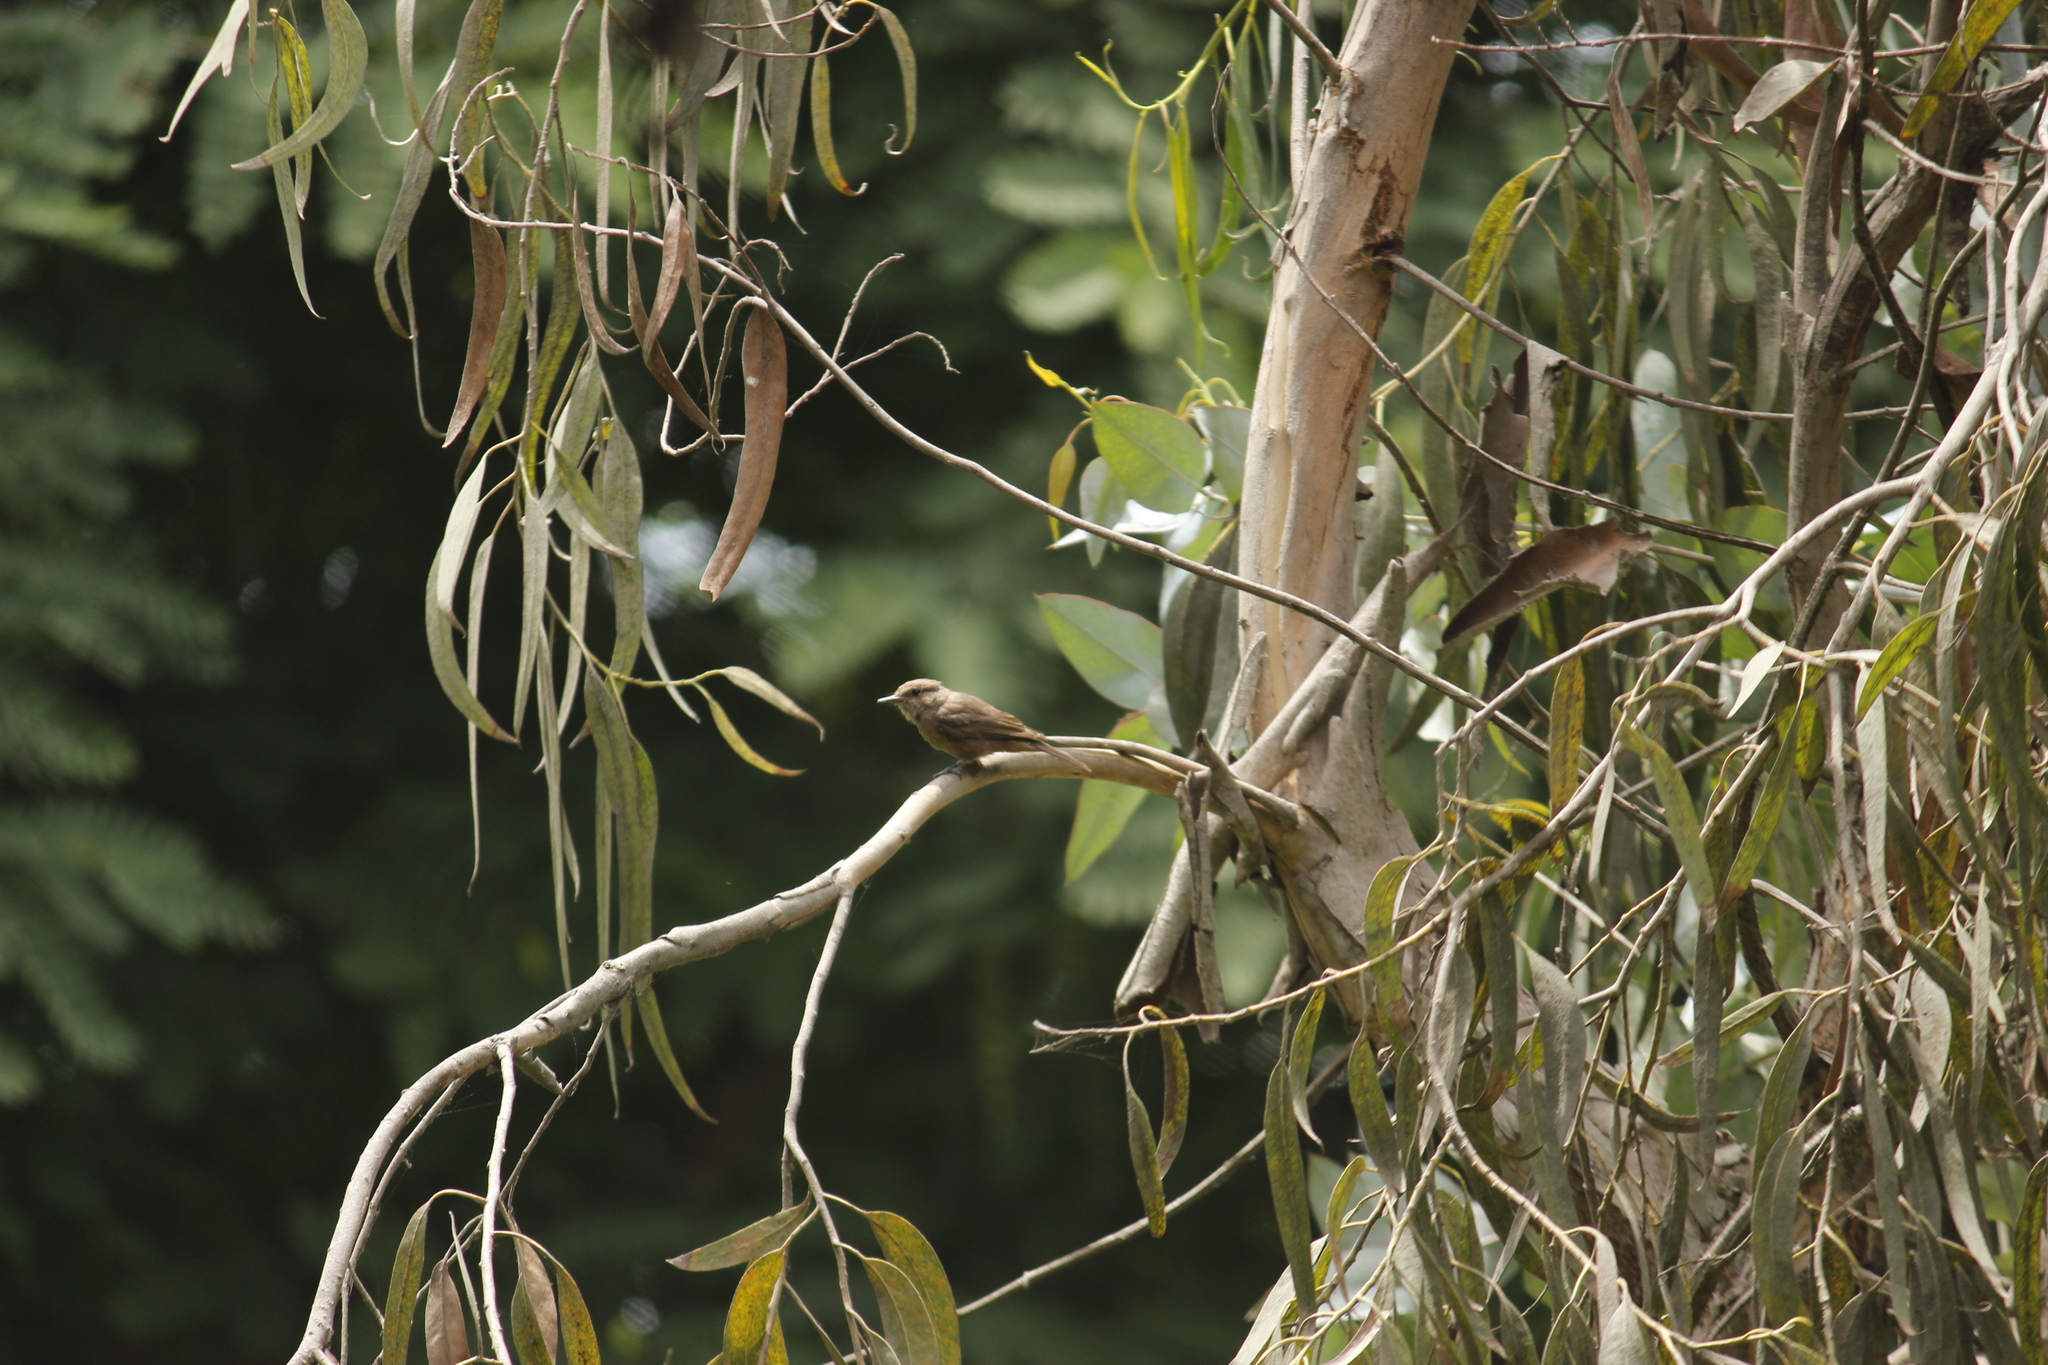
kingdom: Animalia
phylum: Chordata
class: Aves
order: Passeriformes
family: Tyrannidae
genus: Pyrocephalus
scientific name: Pyrocephalus rubinus
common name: Vermilion flycatcher
